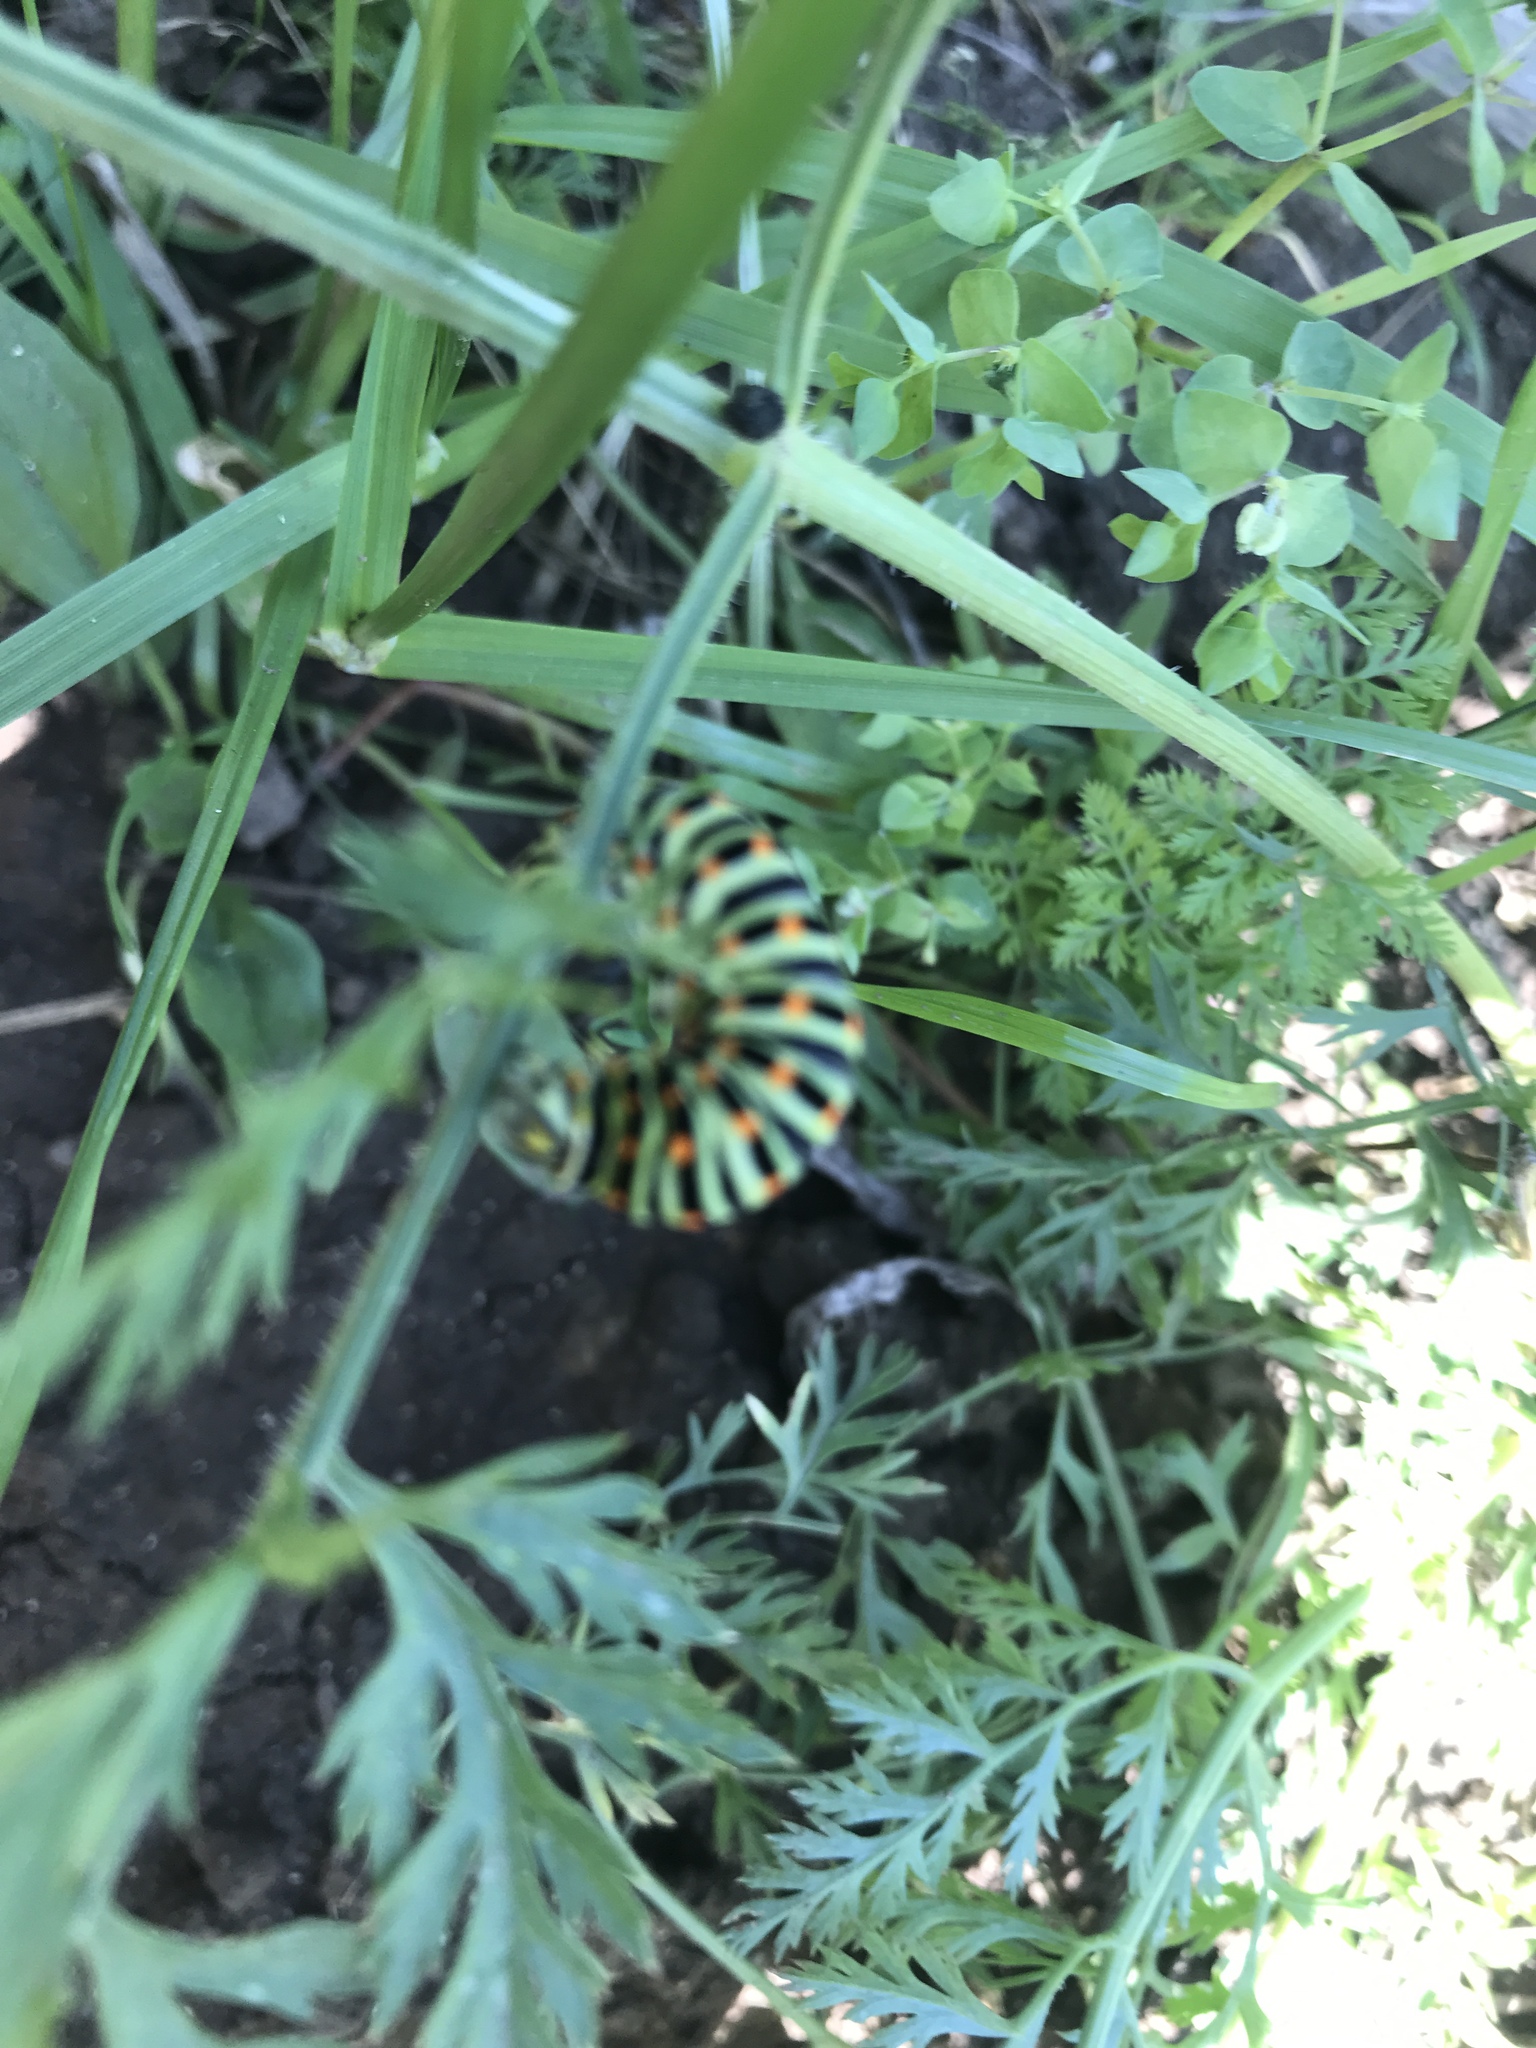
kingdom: Animalia
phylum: Arthropoda
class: Insecta
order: Lepidoptera
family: Papilionidae
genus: Papilio
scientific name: Papilio machaon
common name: Swallowtail
